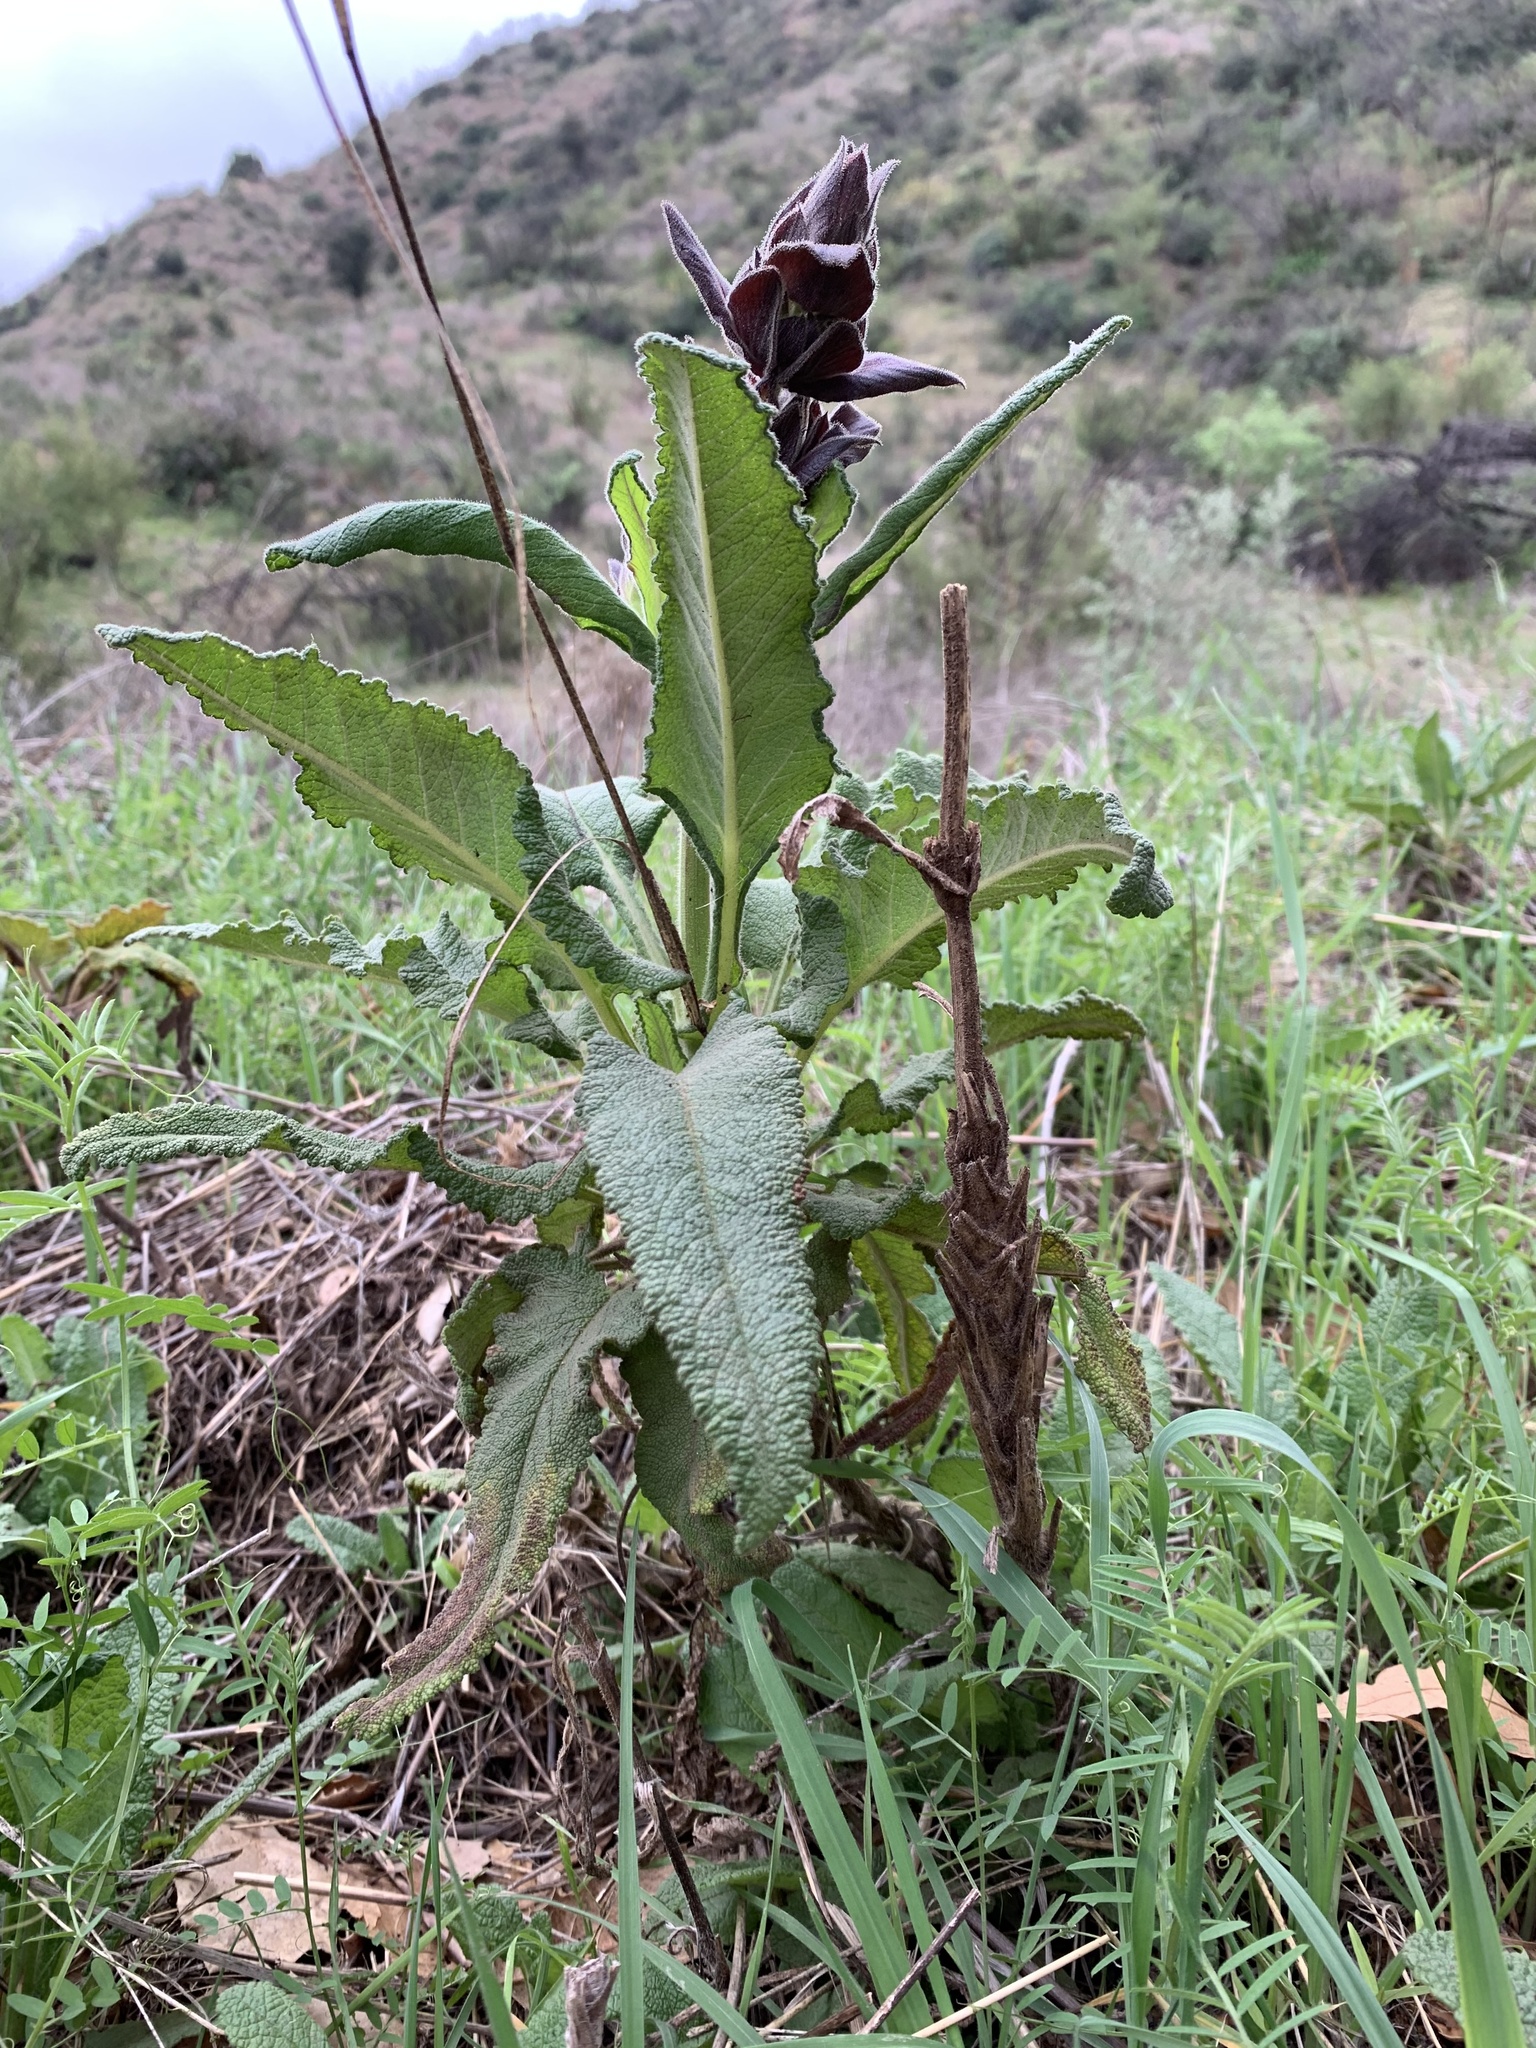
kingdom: Plantae
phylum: Tracheophyta
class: Magnoliopsida
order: Lamiales
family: Lamiaceae
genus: Salvia
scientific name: Salvia spathacea
